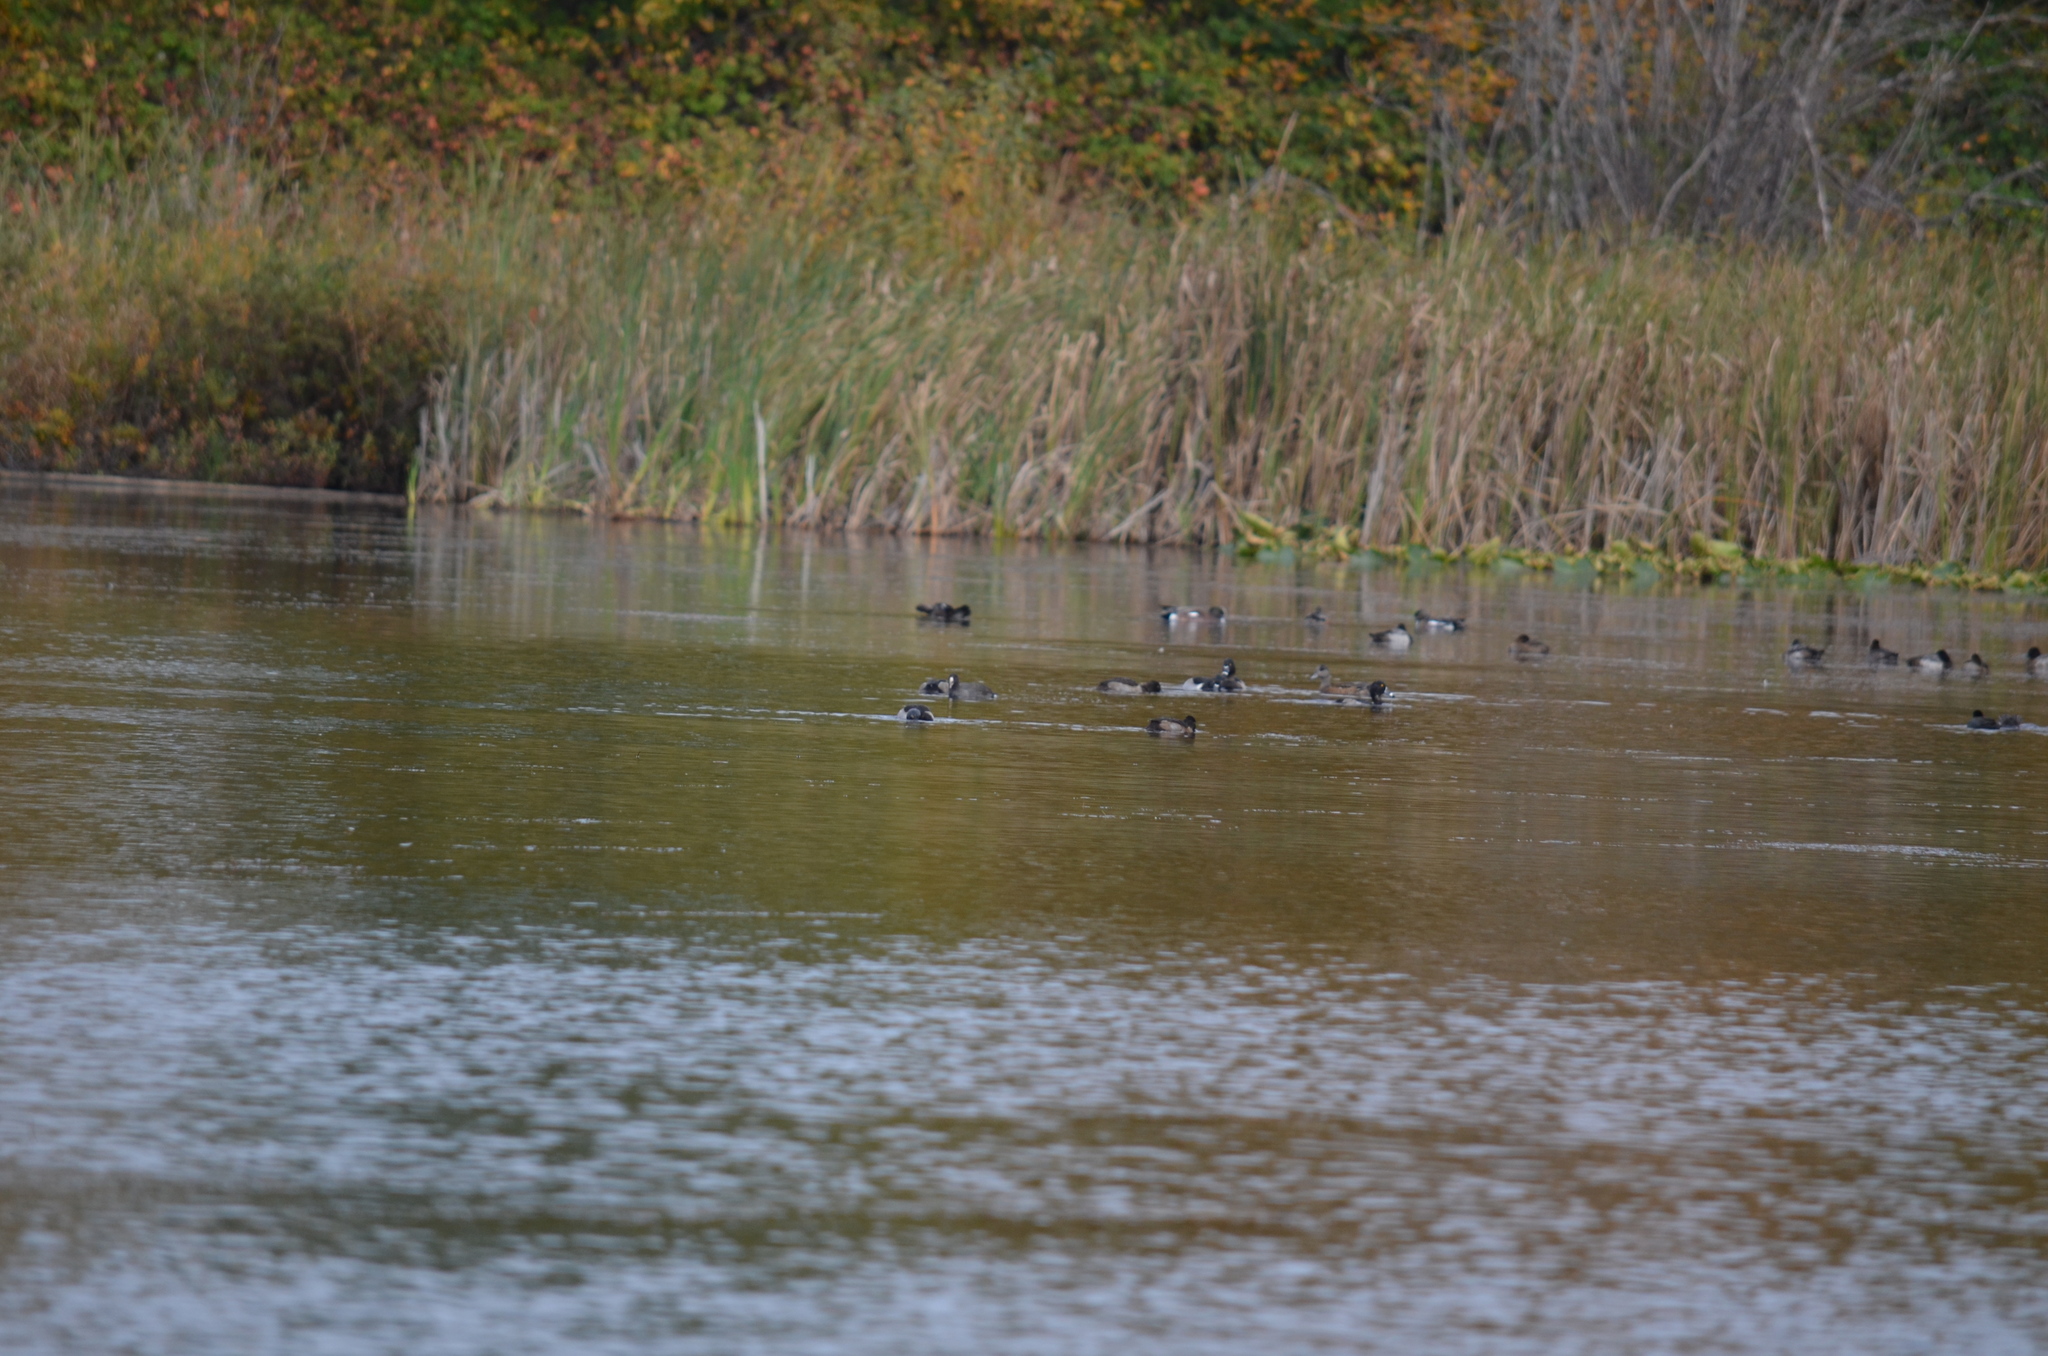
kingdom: Animalia
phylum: Chordata
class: Aves
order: Anseriformes
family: Anatidae
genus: Mareca
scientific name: Mareca americana
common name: American wigeon
